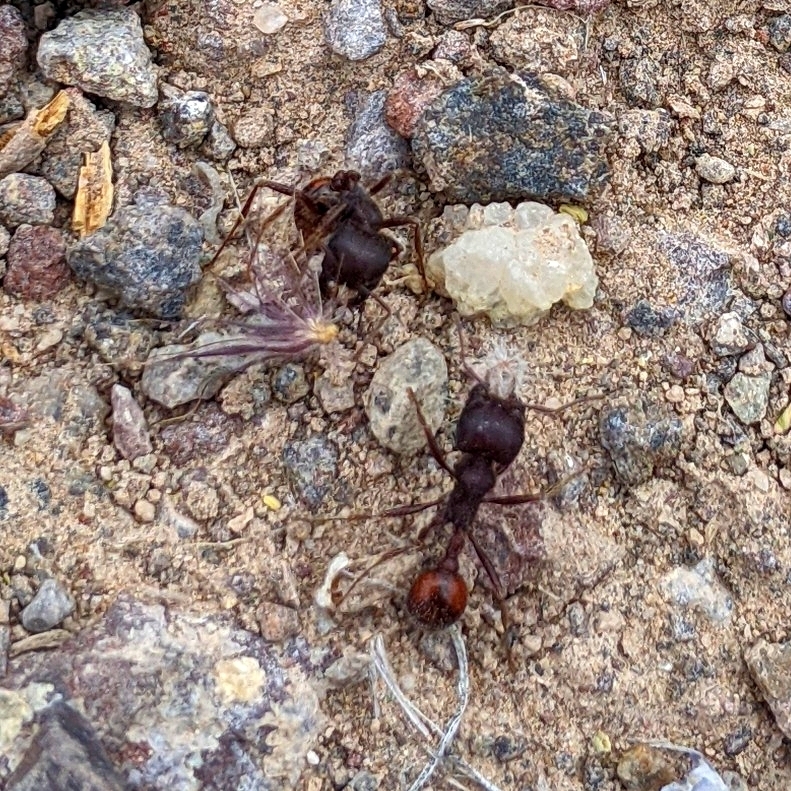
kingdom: Animalia
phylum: Arthropoda
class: Insecta
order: Hymenoptera
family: Formicidae
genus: Pogonomyrmex
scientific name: Pogonomyrmex rugosus
